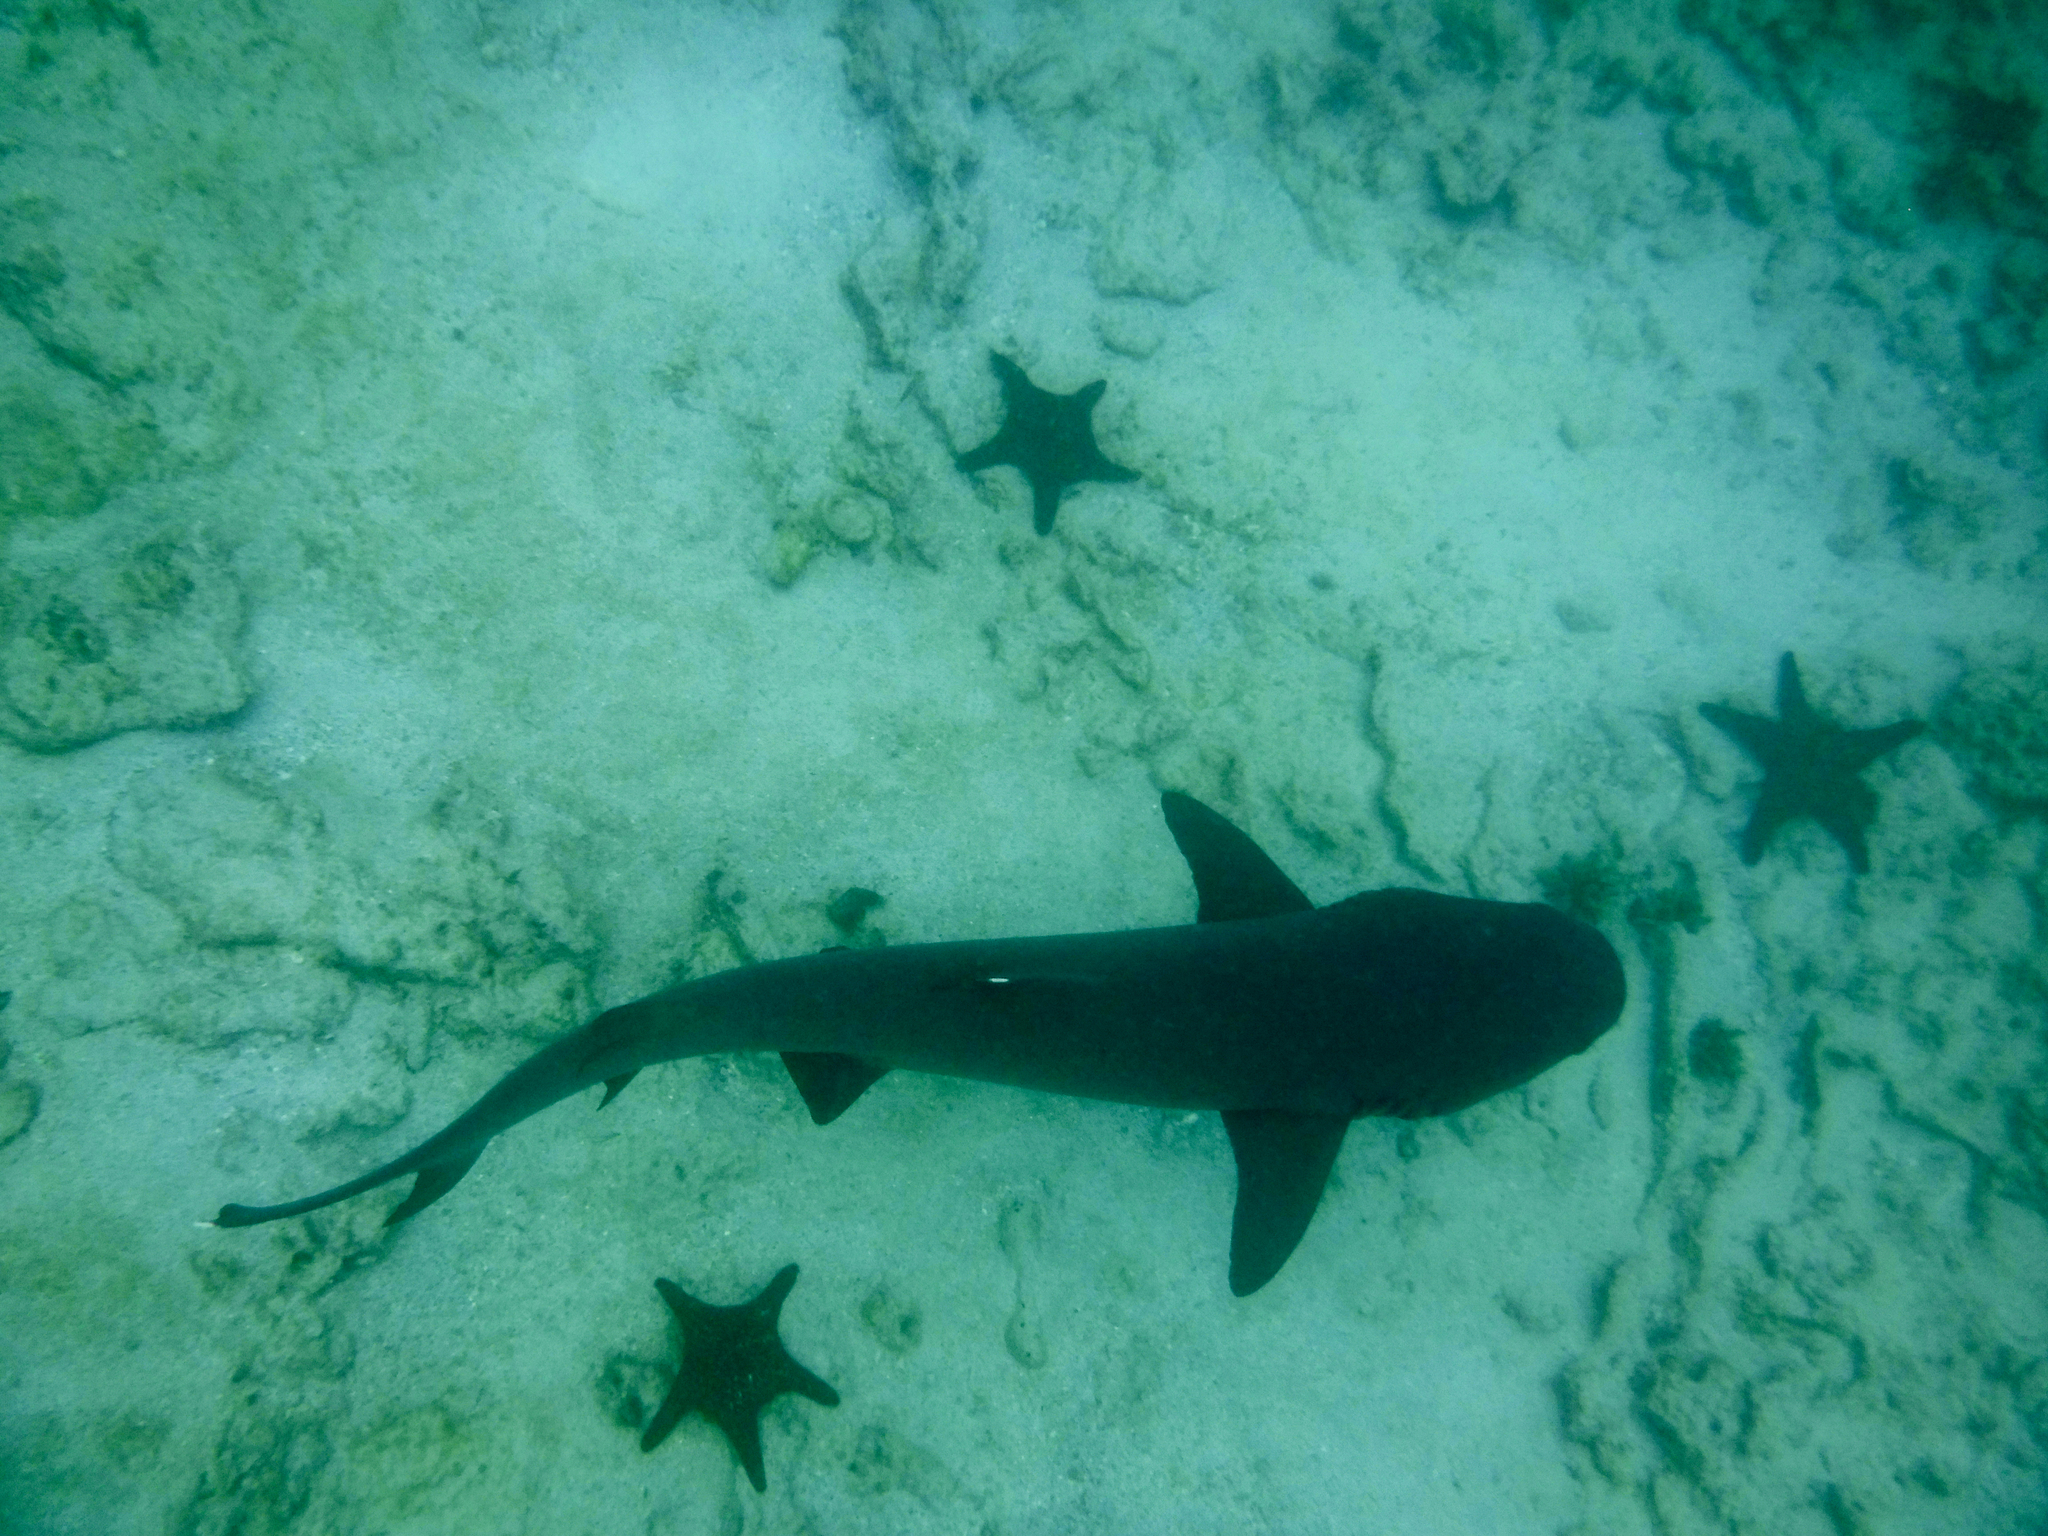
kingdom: Animalia
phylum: Chordata
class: Elasmobranchii
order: Carcharhiniformes
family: Carcharhinidae
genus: Triaenodon
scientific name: Triaenodon obesus
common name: Whitetip reef shark
